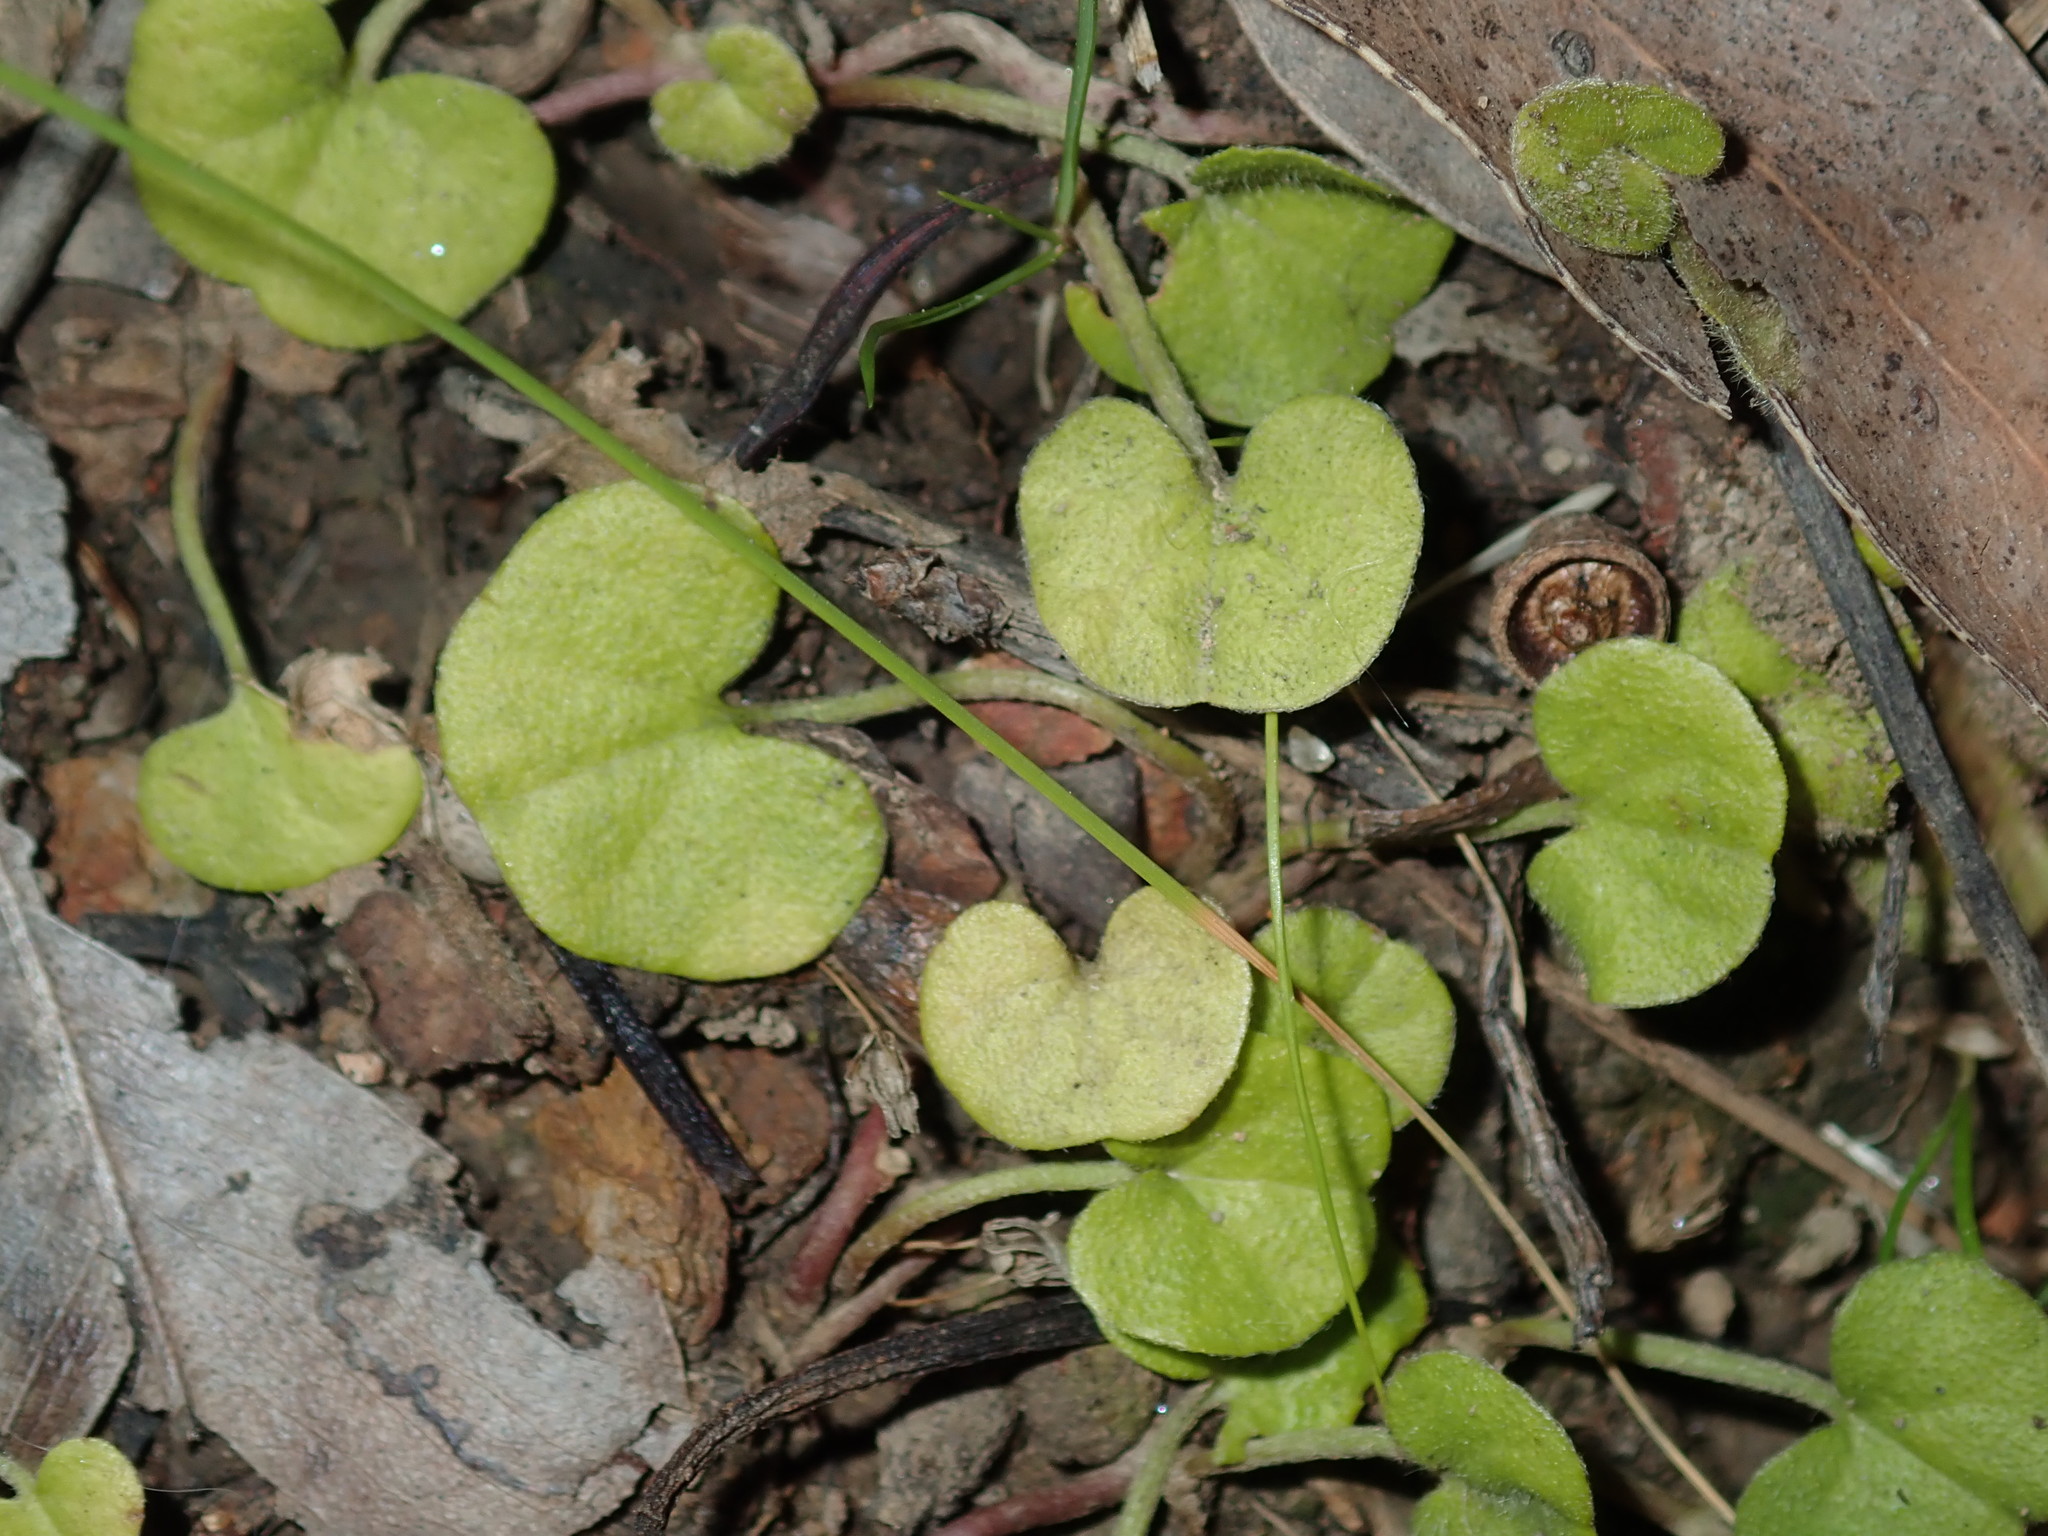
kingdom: Plantae
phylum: Tracheophyta
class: Magnoliopsida
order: Solanales
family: Convolvulaceae
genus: Dichondra
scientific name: Dichondra repens
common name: Kidneyweed
